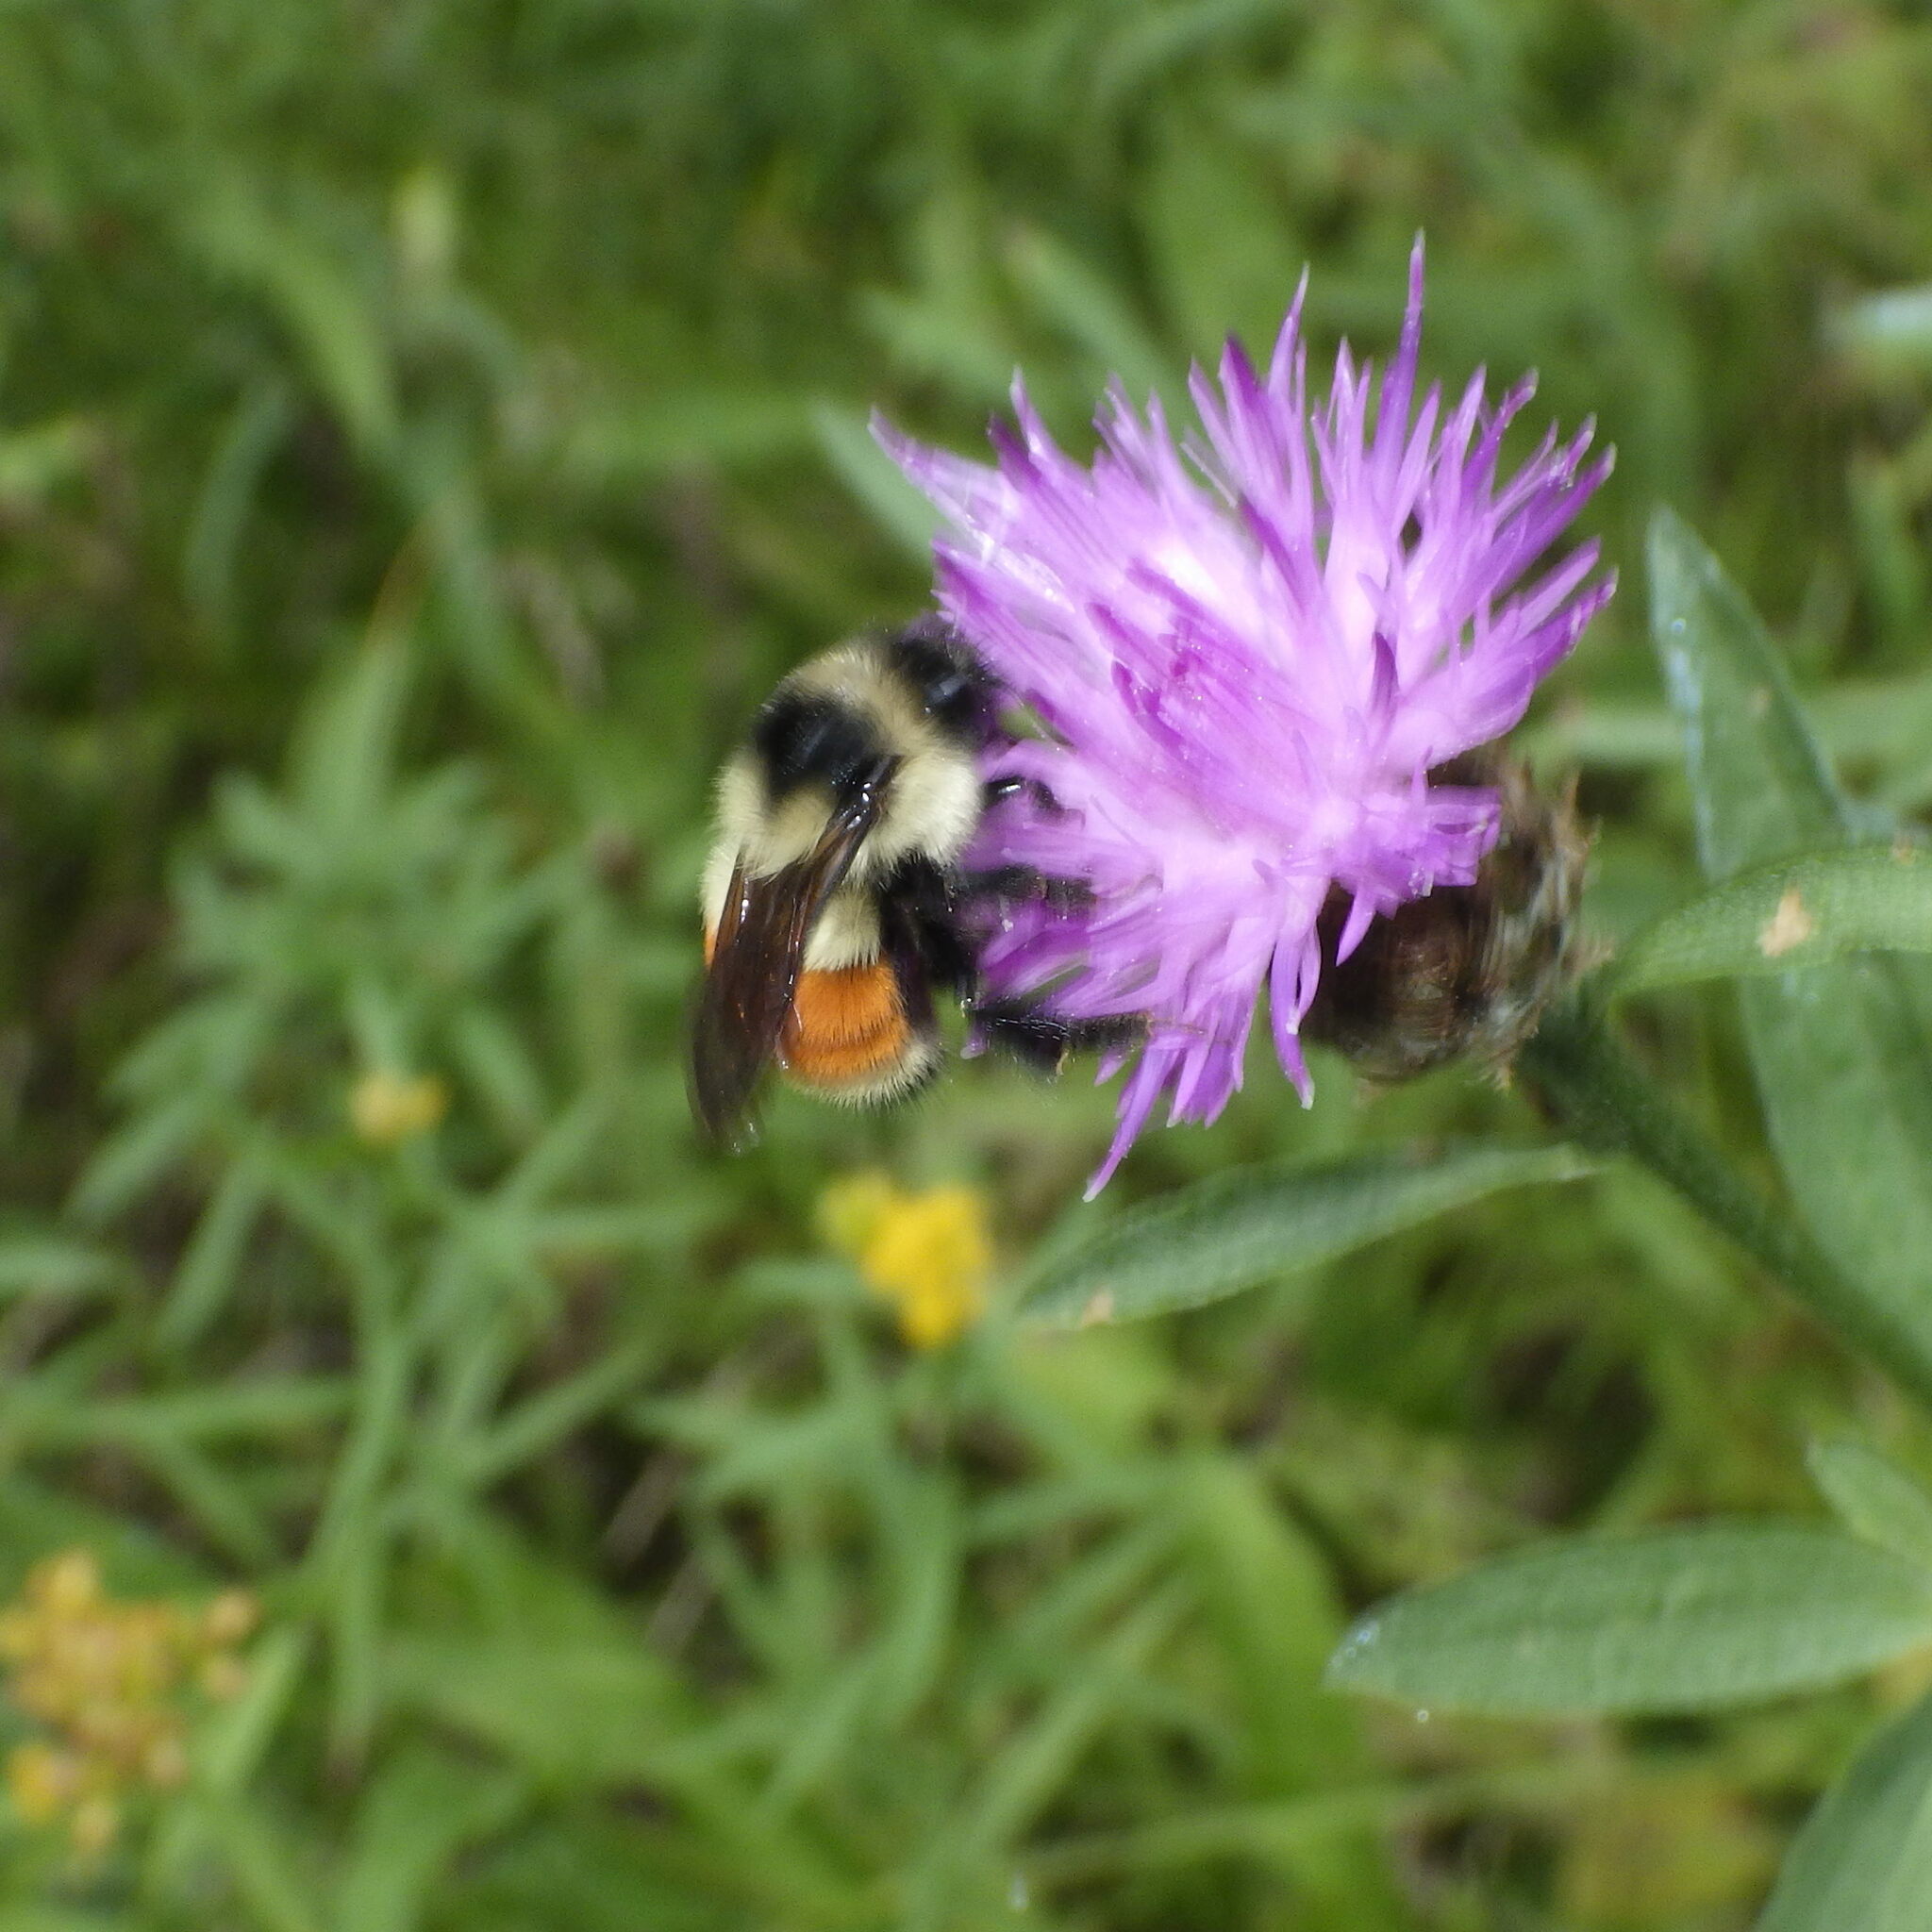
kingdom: Animalia
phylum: Arthropoda
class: Insecta
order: Hymenoptera
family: Apidae
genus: Bombus
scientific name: Bombus ternarius
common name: Tri-colored bumble bee
